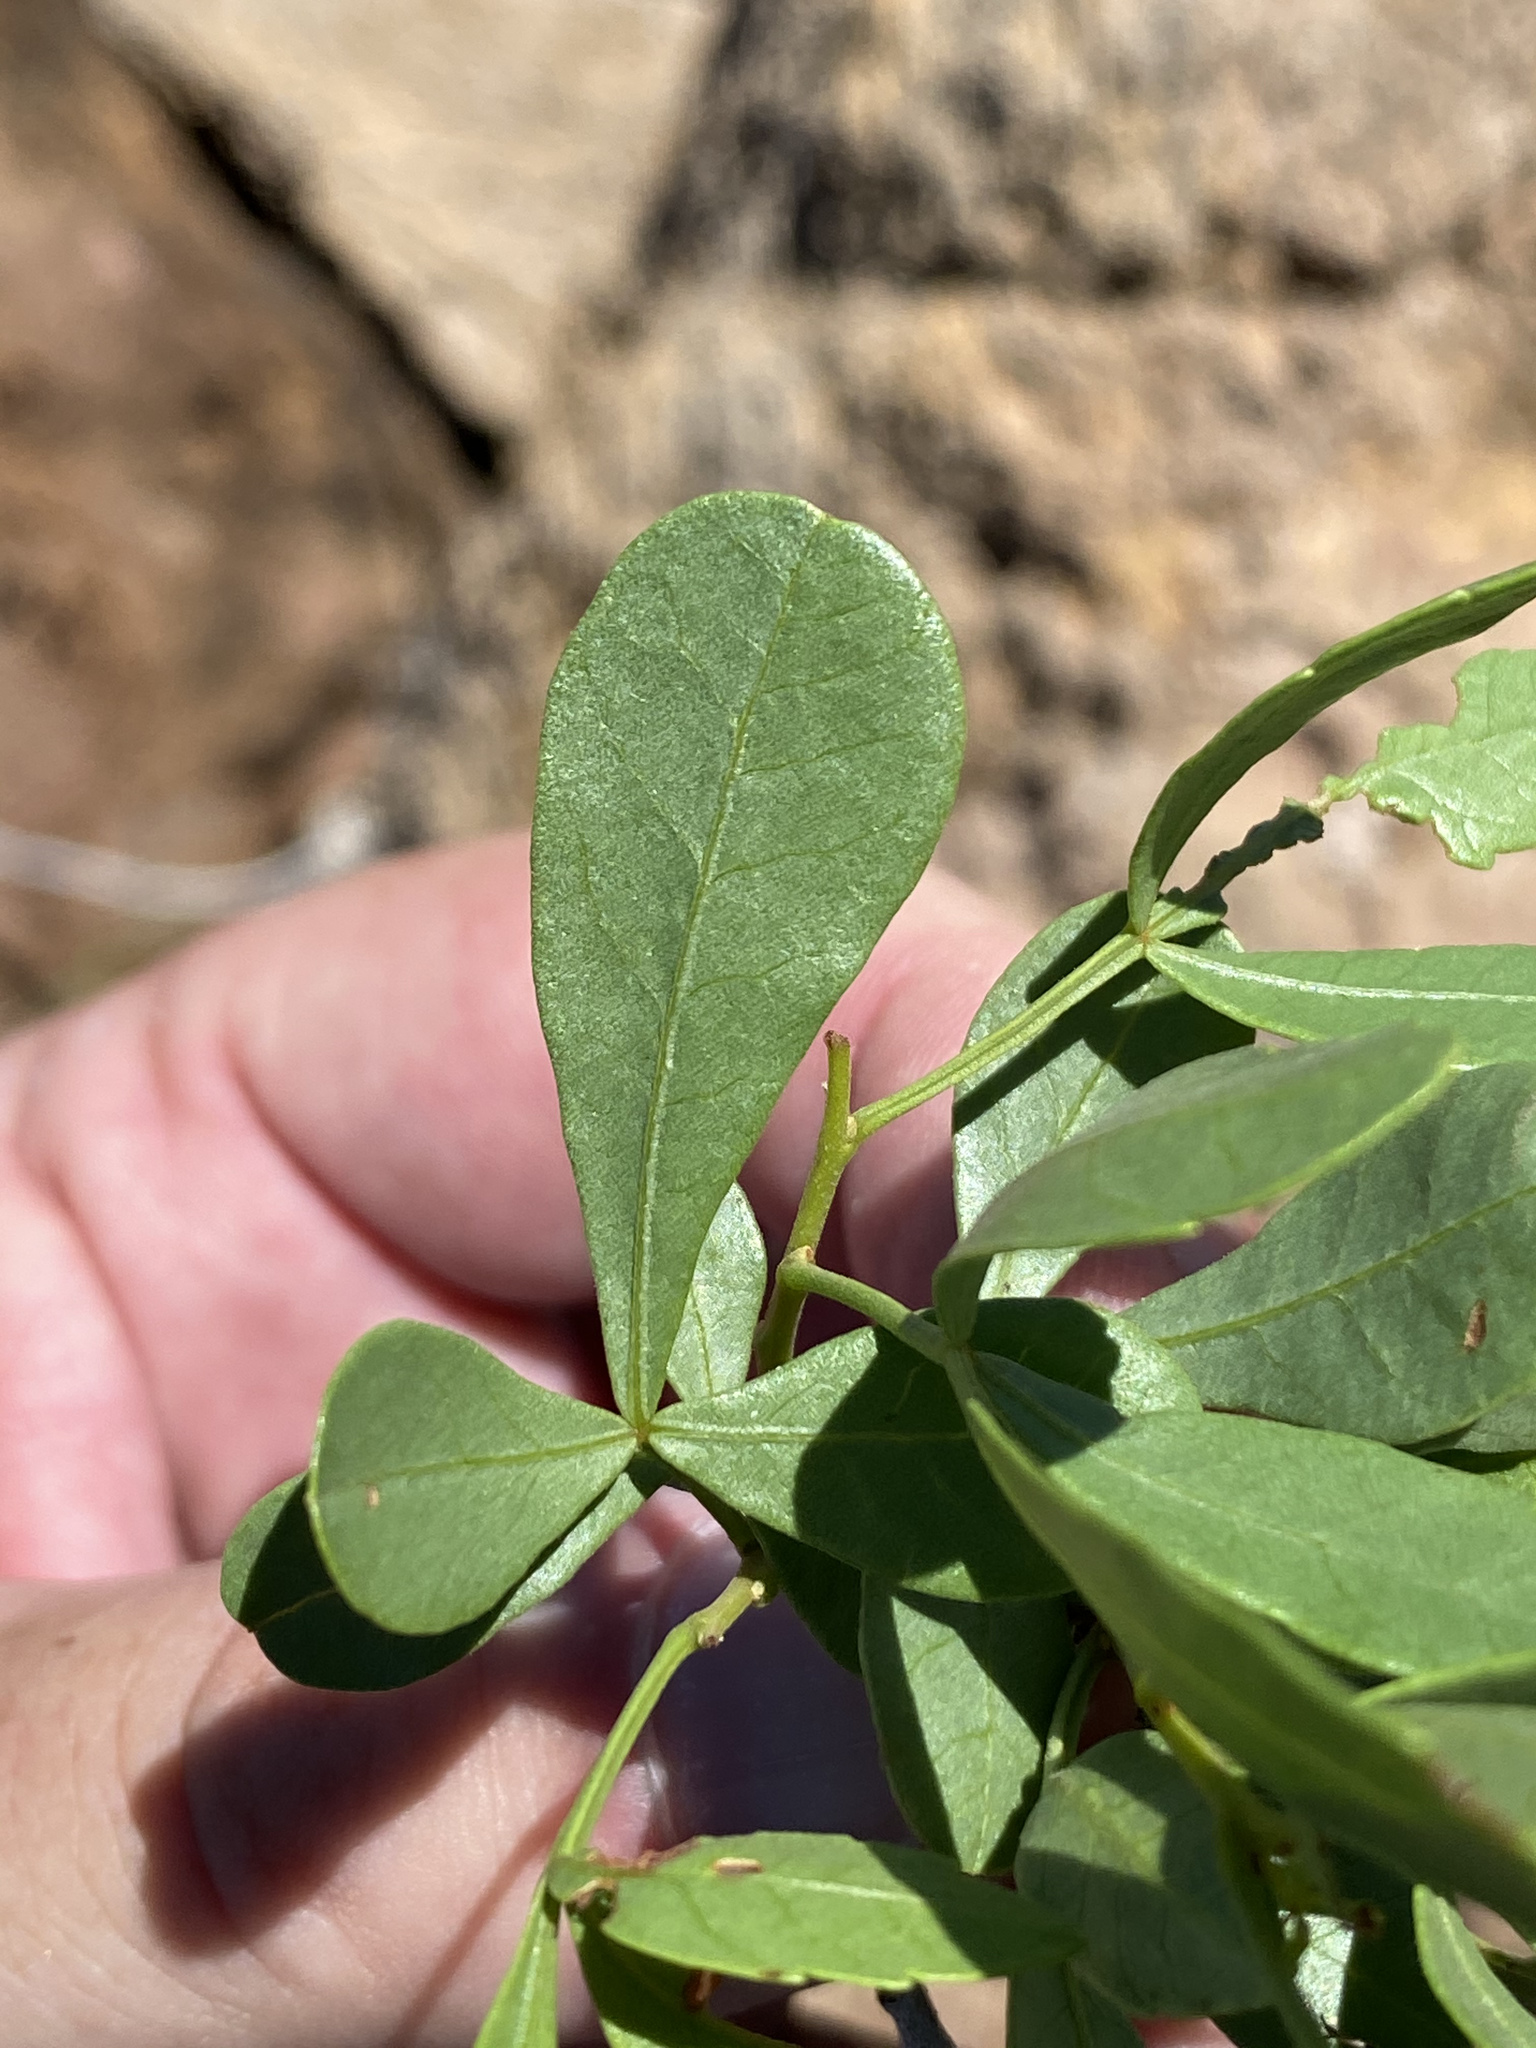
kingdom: Plantae
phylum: Tracheophyta
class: Magnoliopsida
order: Sapindales
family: Anacardiaceae
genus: Searsia
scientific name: Searsia marlothii
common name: Bitter karee
